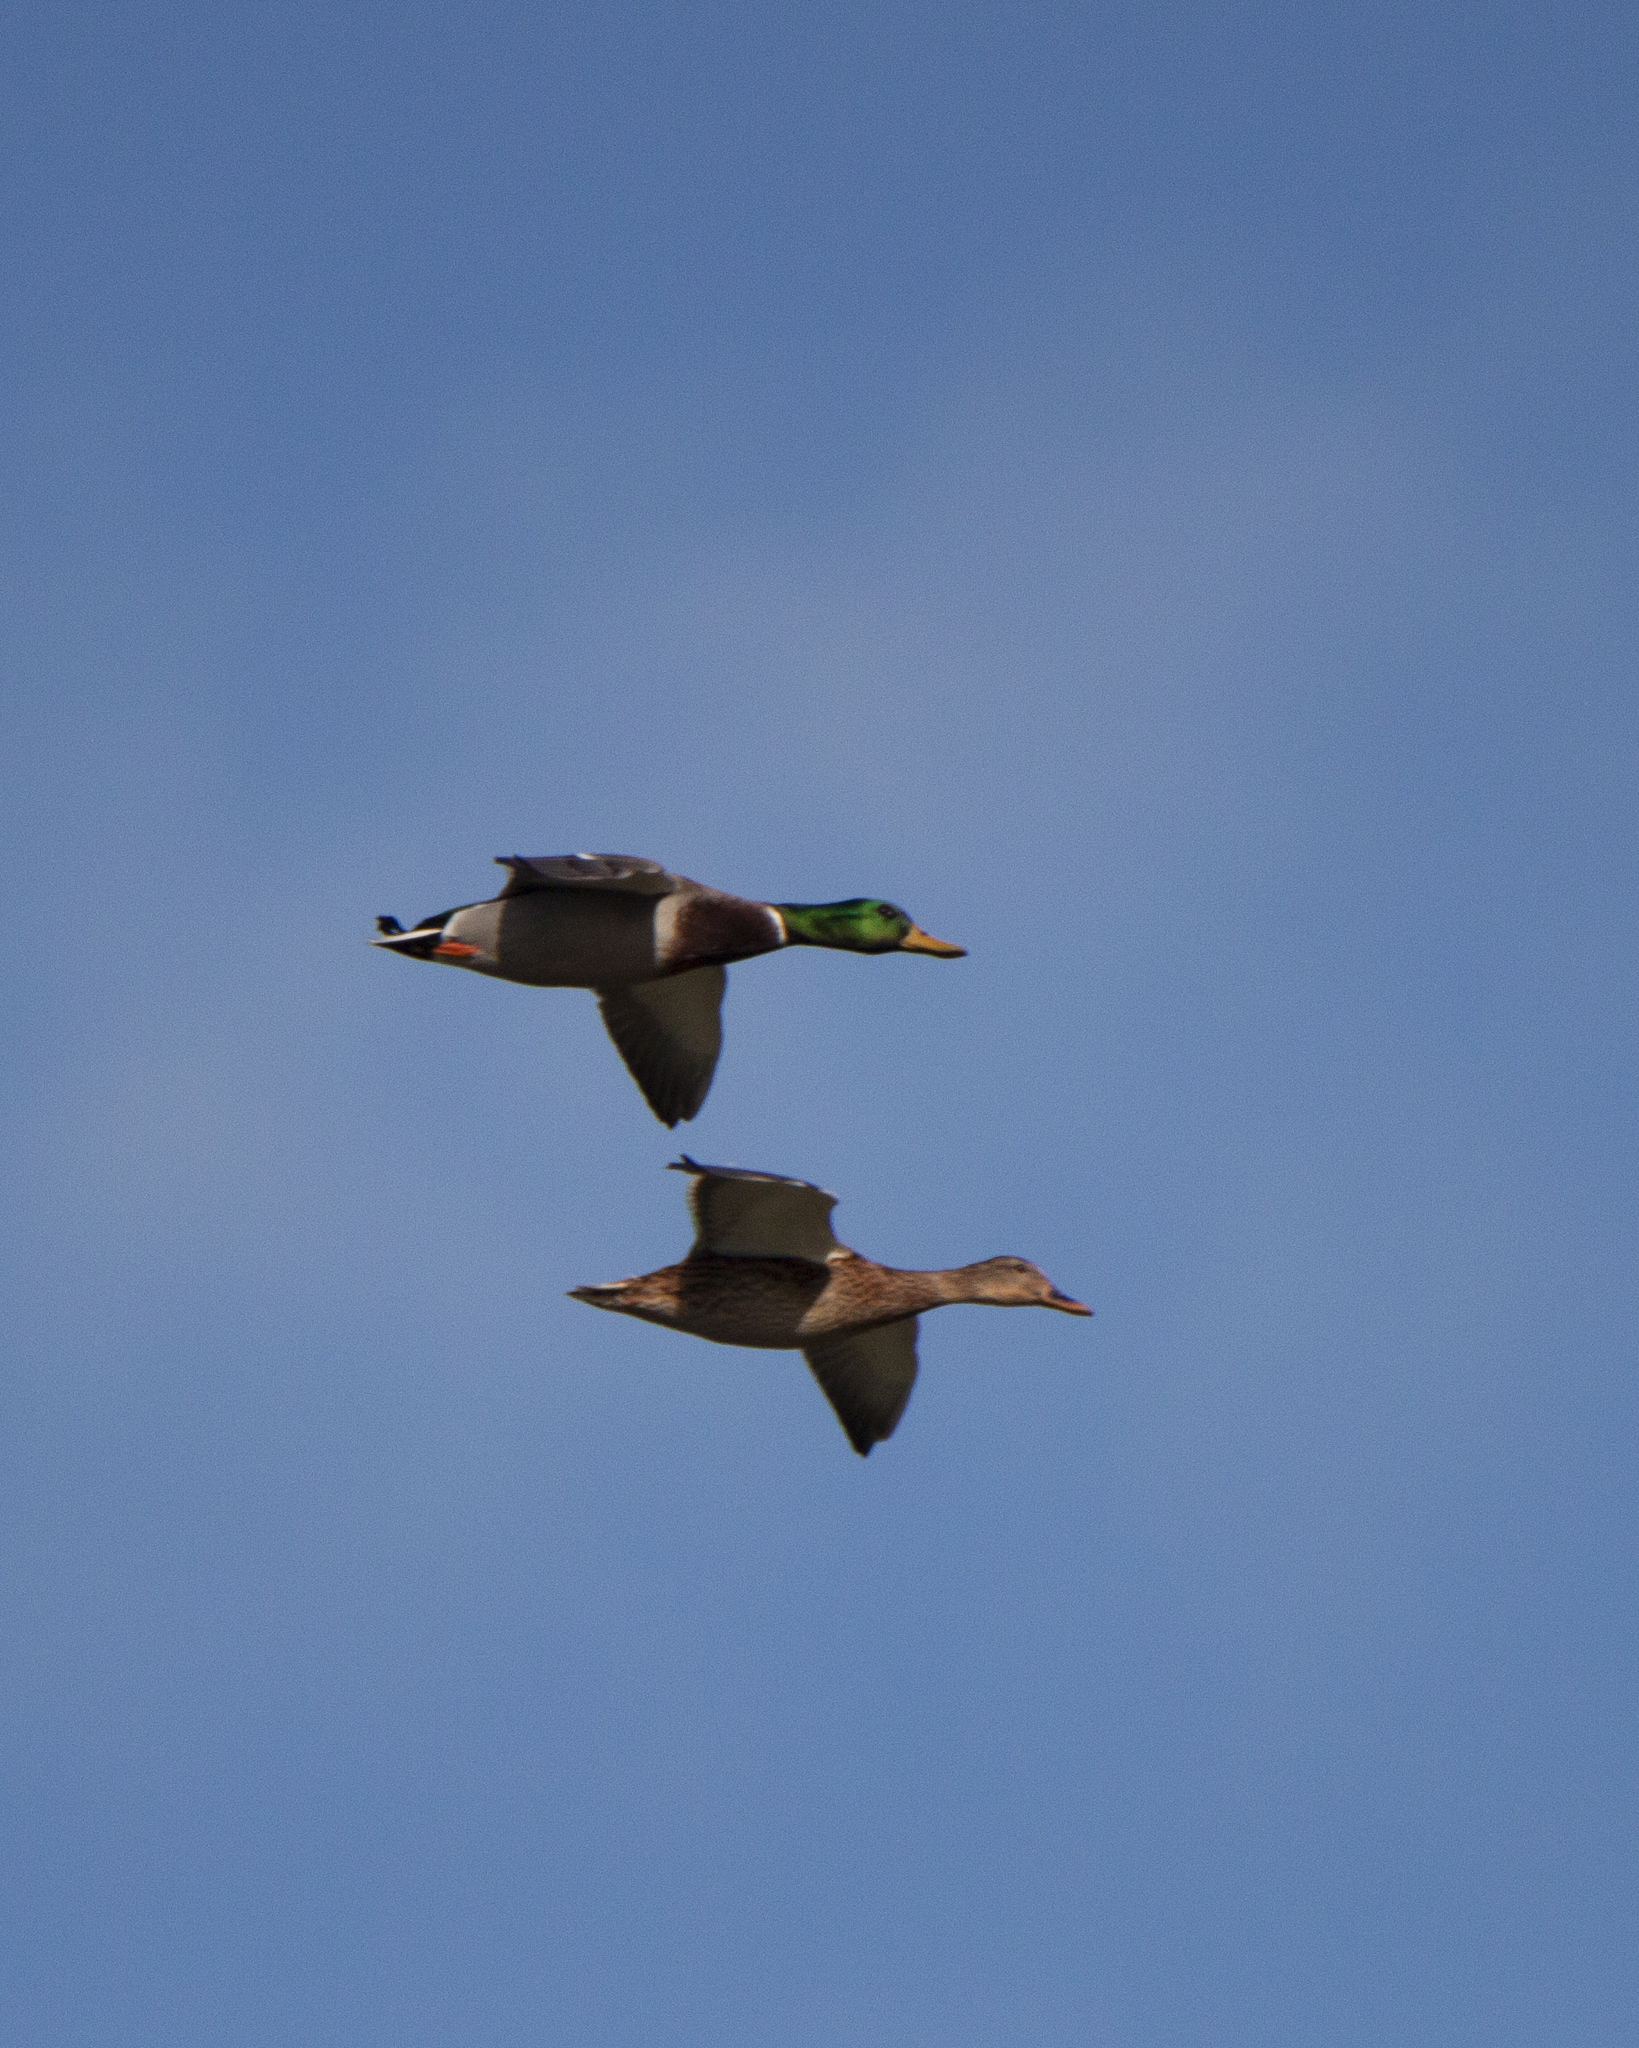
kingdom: Animalia
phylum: Chordata
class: Aves
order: Anseriformes
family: Anatidae
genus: Anas
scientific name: Anas platyrhynchos
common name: Mallard
